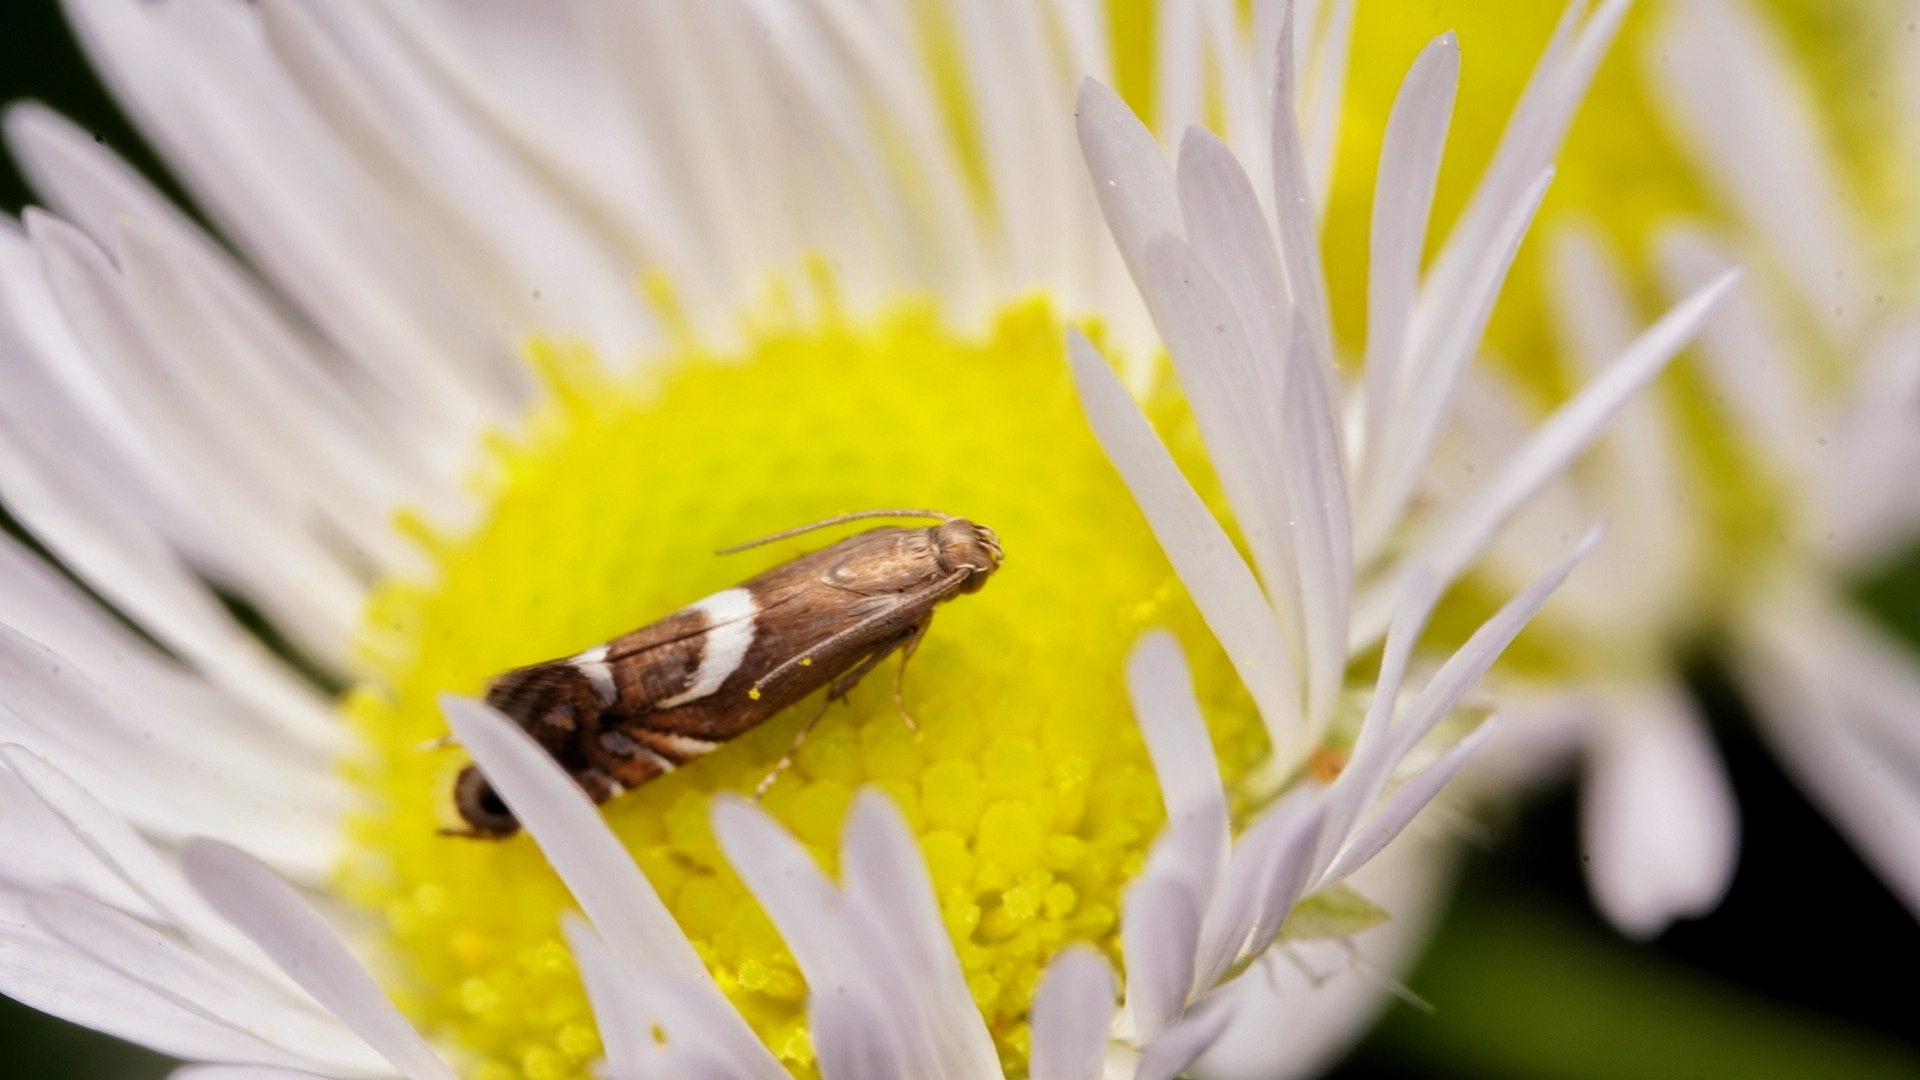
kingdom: Animalia
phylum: Arthropoda
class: Insecta
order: Lepidoptera
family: Glyphipterigidae
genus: Glyphipterix
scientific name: Glyphipterix Diploschizia impigritella
